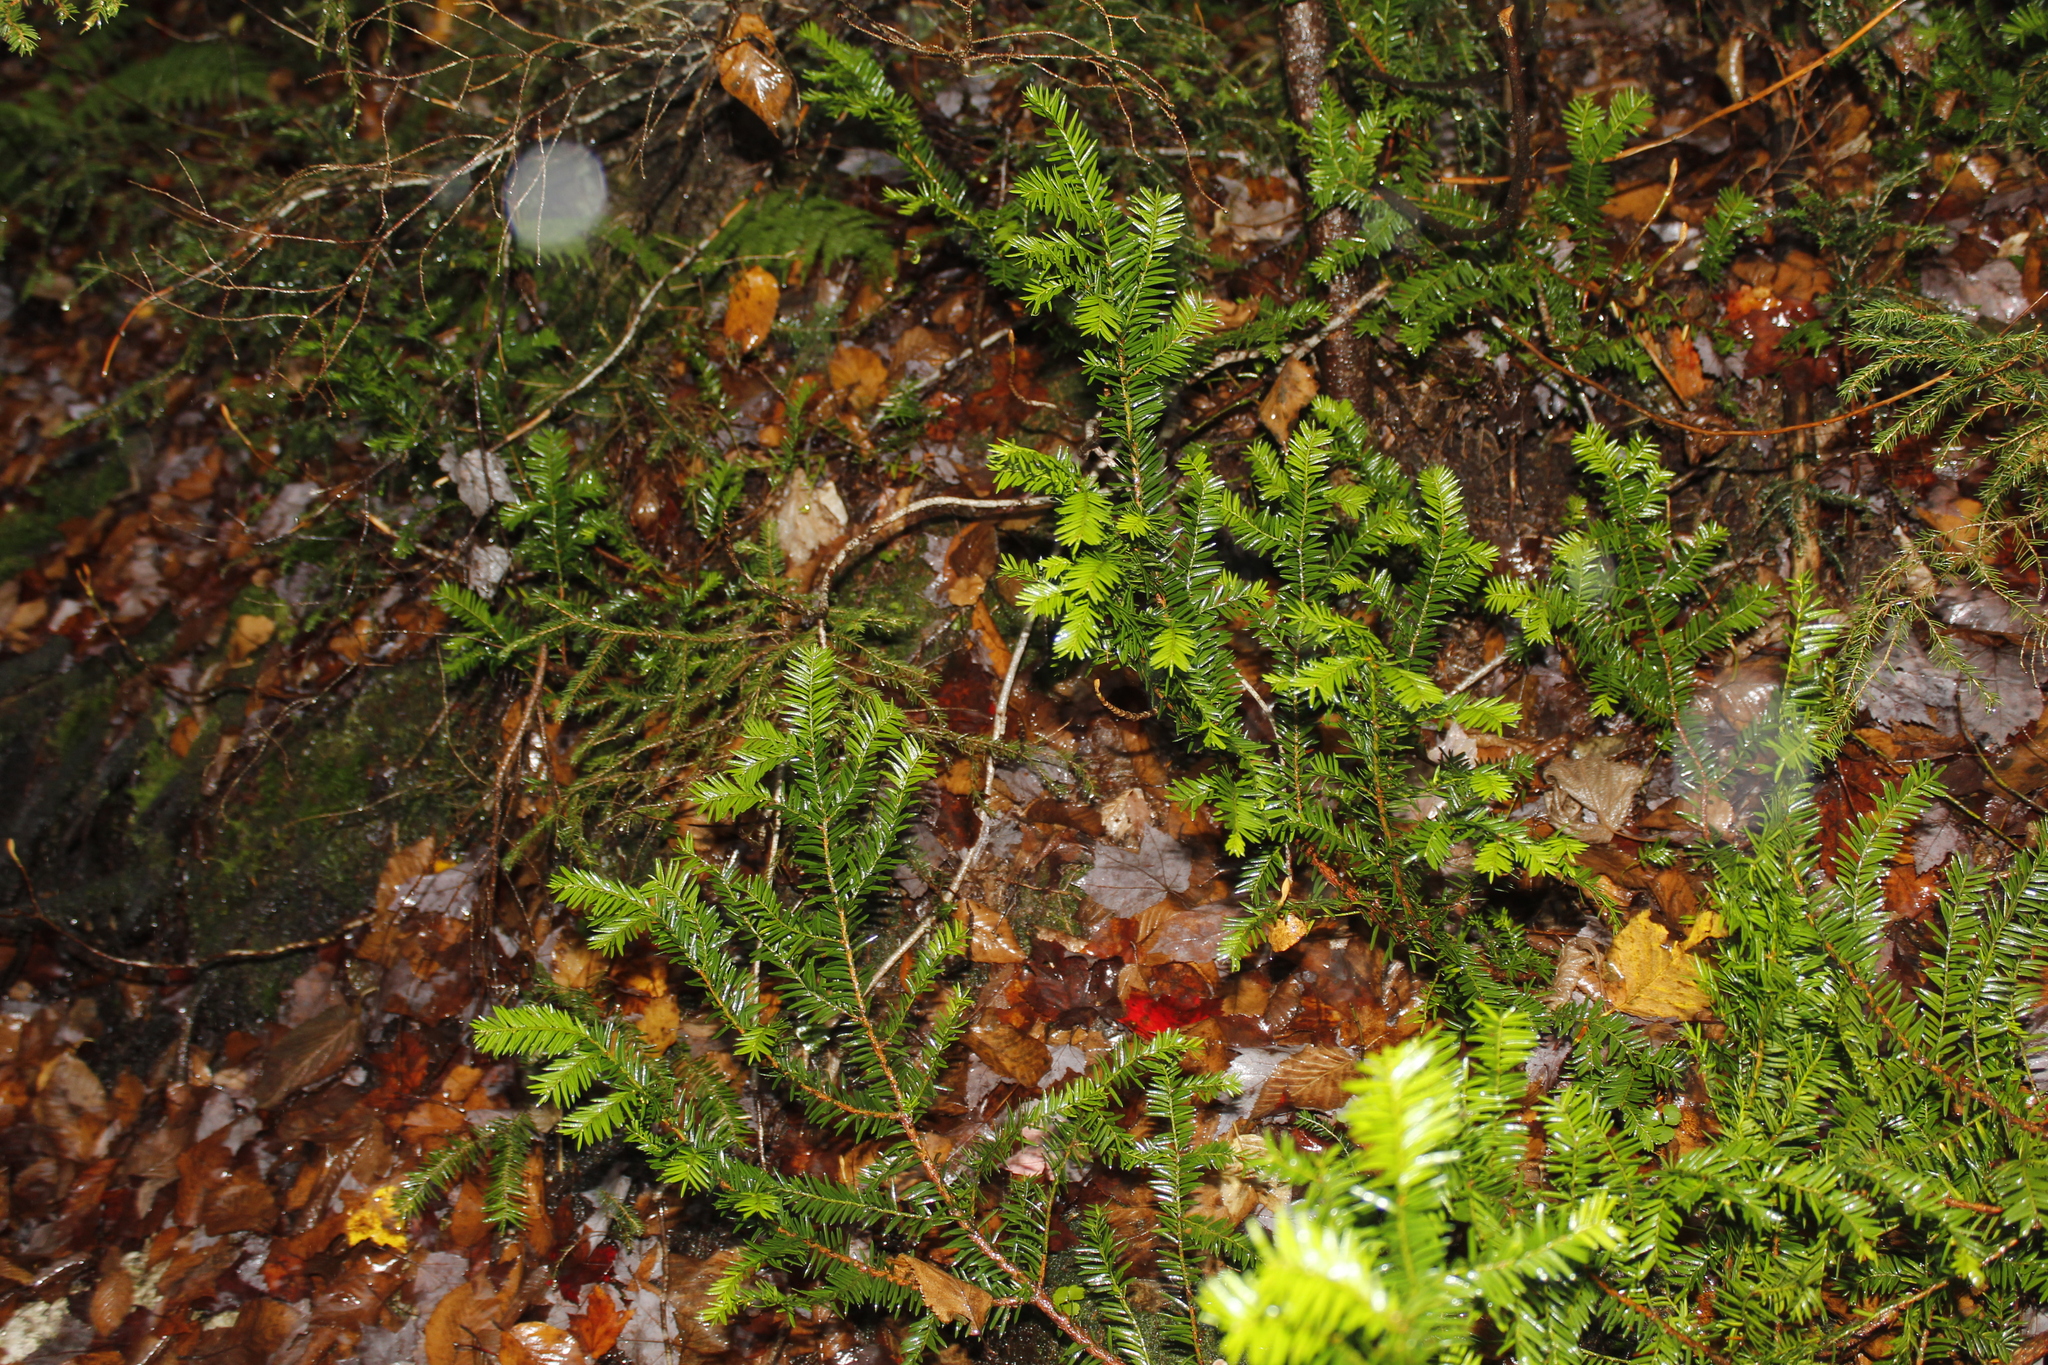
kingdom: Plantae
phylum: Tracheophyta
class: Pinopsida
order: Pinales
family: Taxaceae
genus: Taxus
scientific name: Taxus canadensis
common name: American yew
